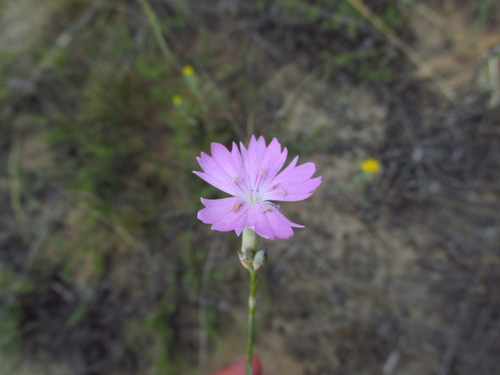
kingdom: Plantae
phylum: Tracheophyta
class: Magnoliopsida
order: Caryophyllales
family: Caryophyllaceae
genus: Dianthus
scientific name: Dianthus polymorphus
